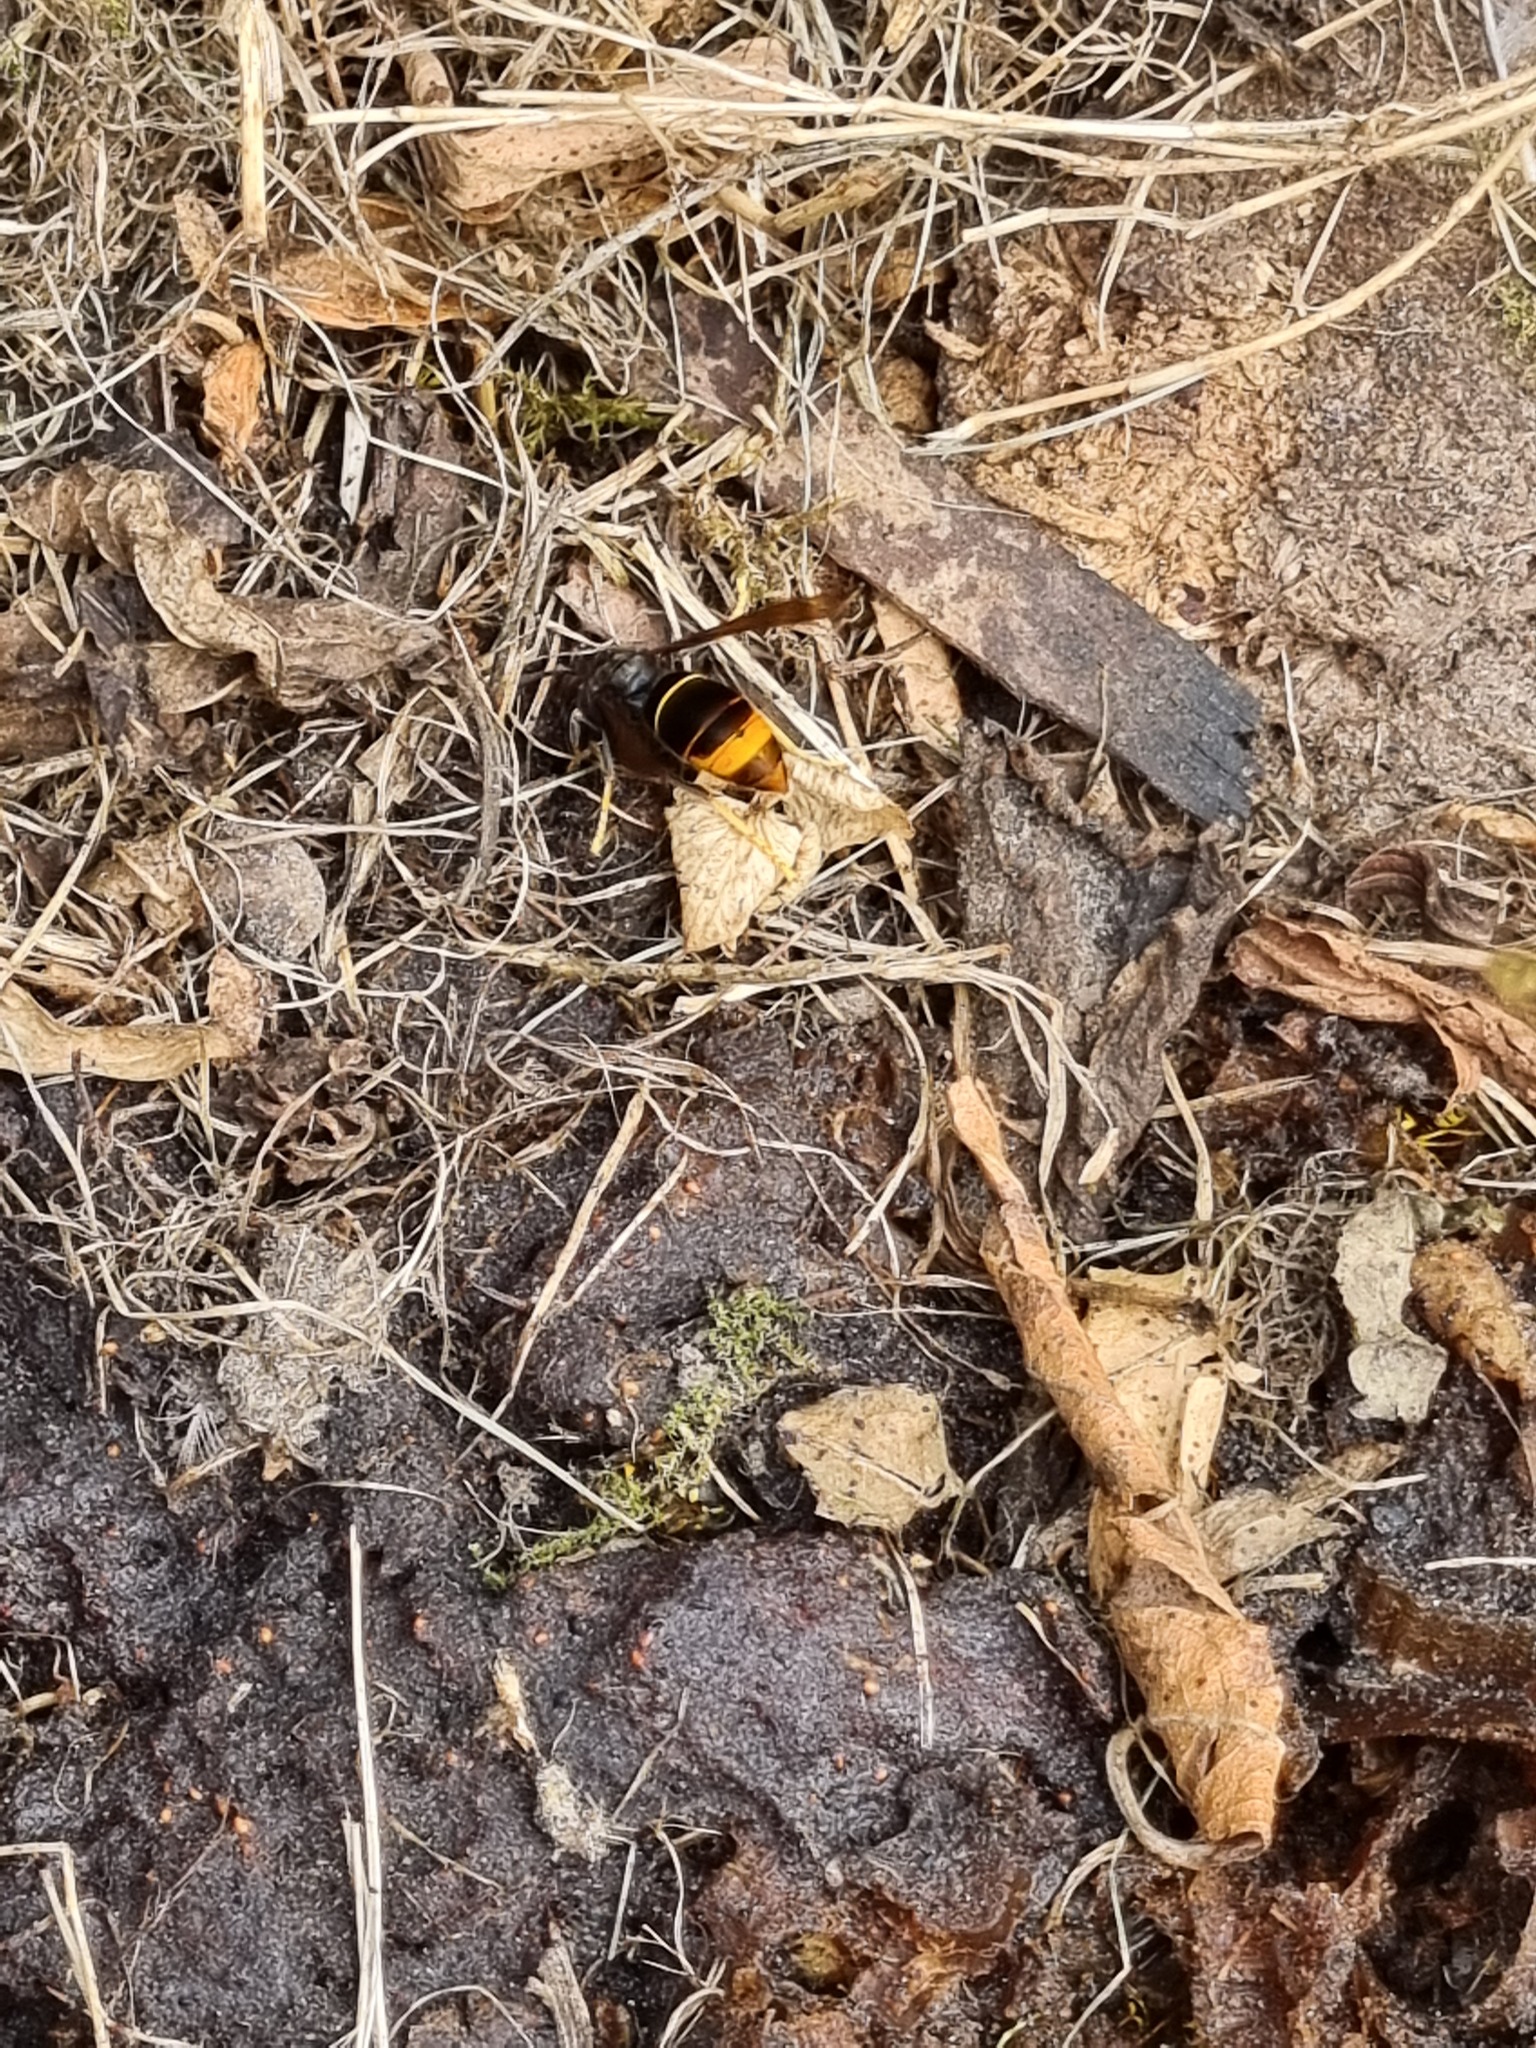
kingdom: Animalia
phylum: Arthropoda
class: Insecta
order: Hymenoptera
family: Vespidae
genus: Vespa
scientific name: Vespa velutina
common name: Asian hornet
